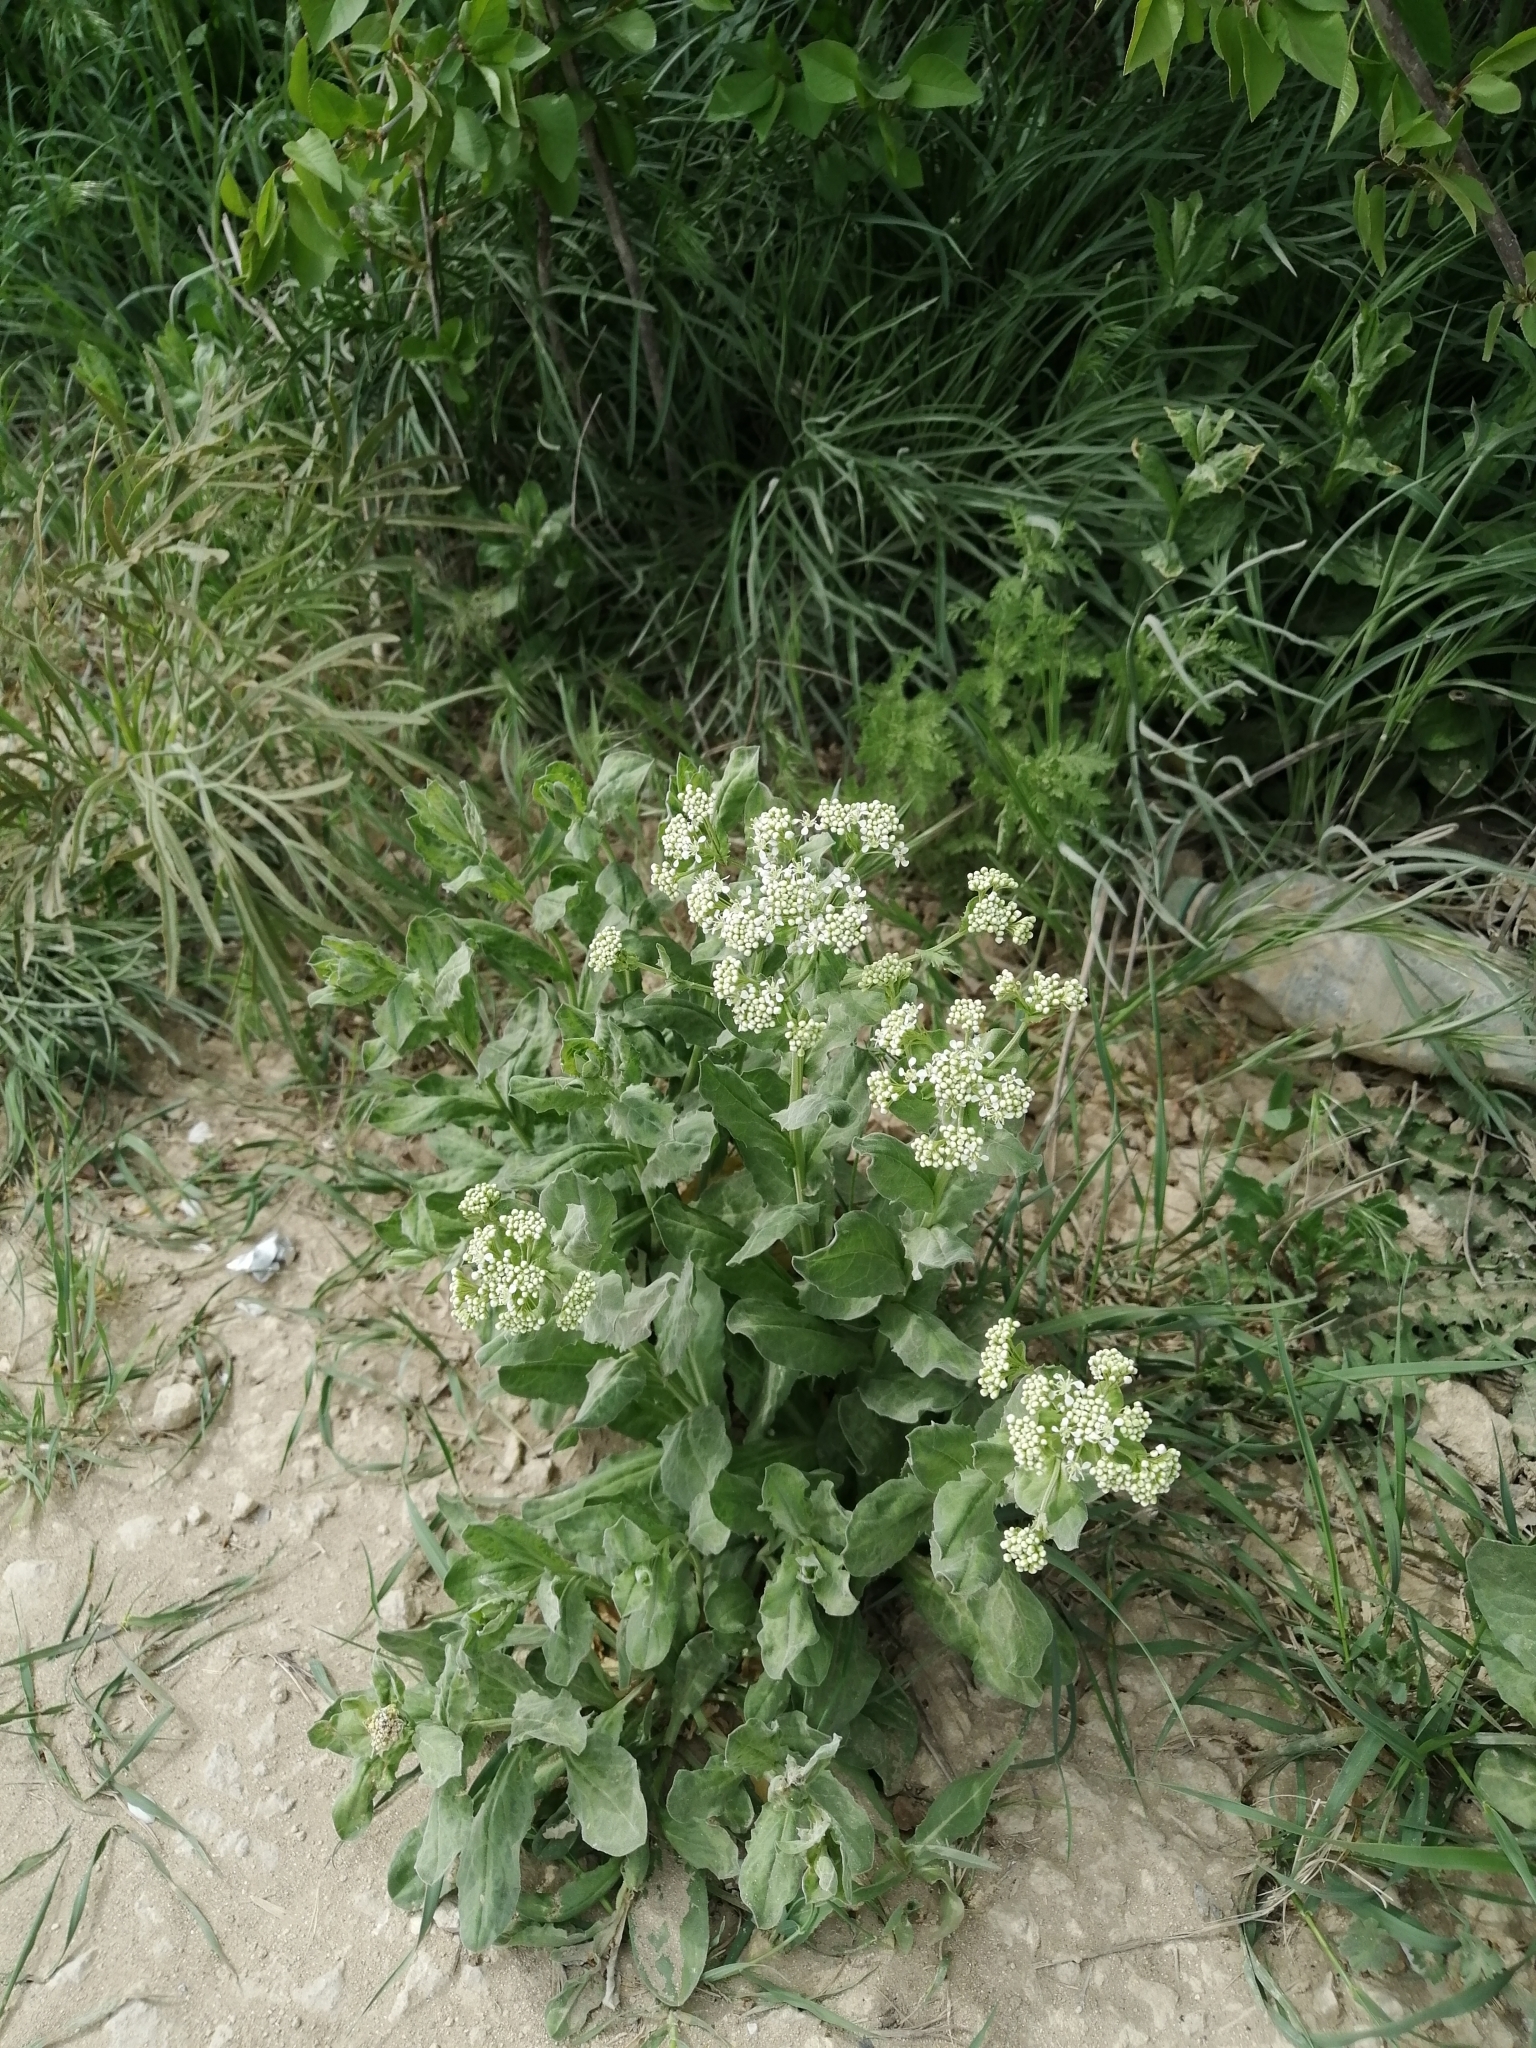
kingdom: Plantae
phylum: Tracheophyta
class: Magnoliopsida
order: Brassicales
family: Brassicaceae
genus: Lepidium
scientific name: Lepidium draba
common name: Hoary cress
